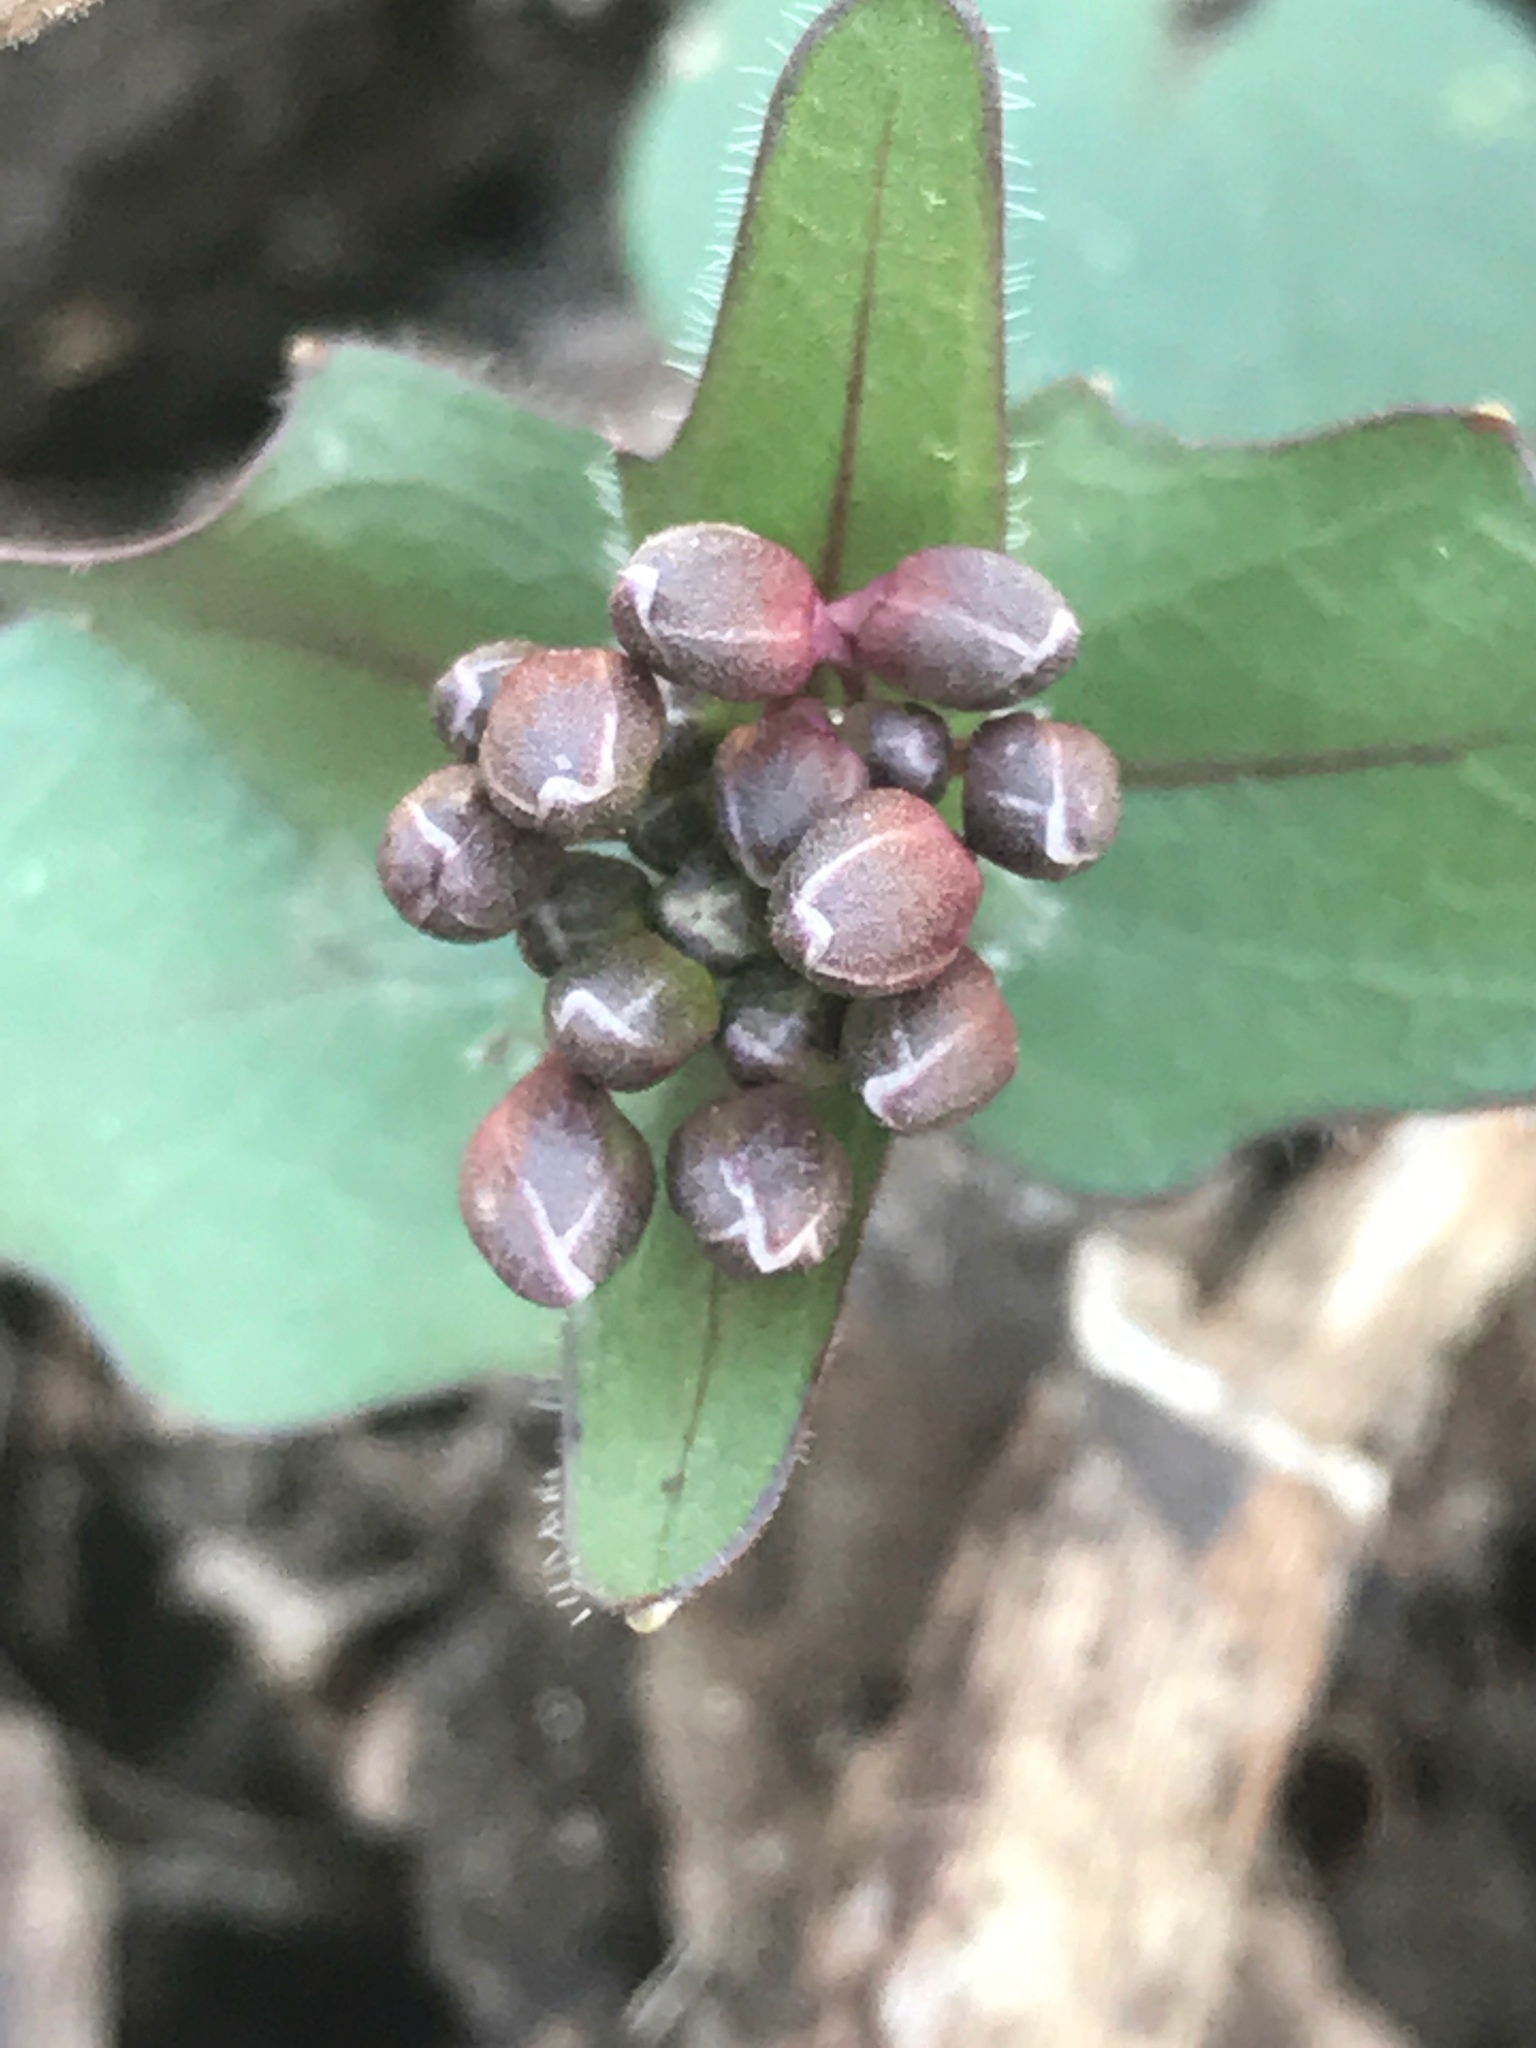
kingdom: Plantae
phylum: Tracheophyta
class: Magnoliopsida
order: Brassicales
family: Brassicaceae
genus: Cardamine
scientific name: Cardamine douglassii
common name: Purple cress
